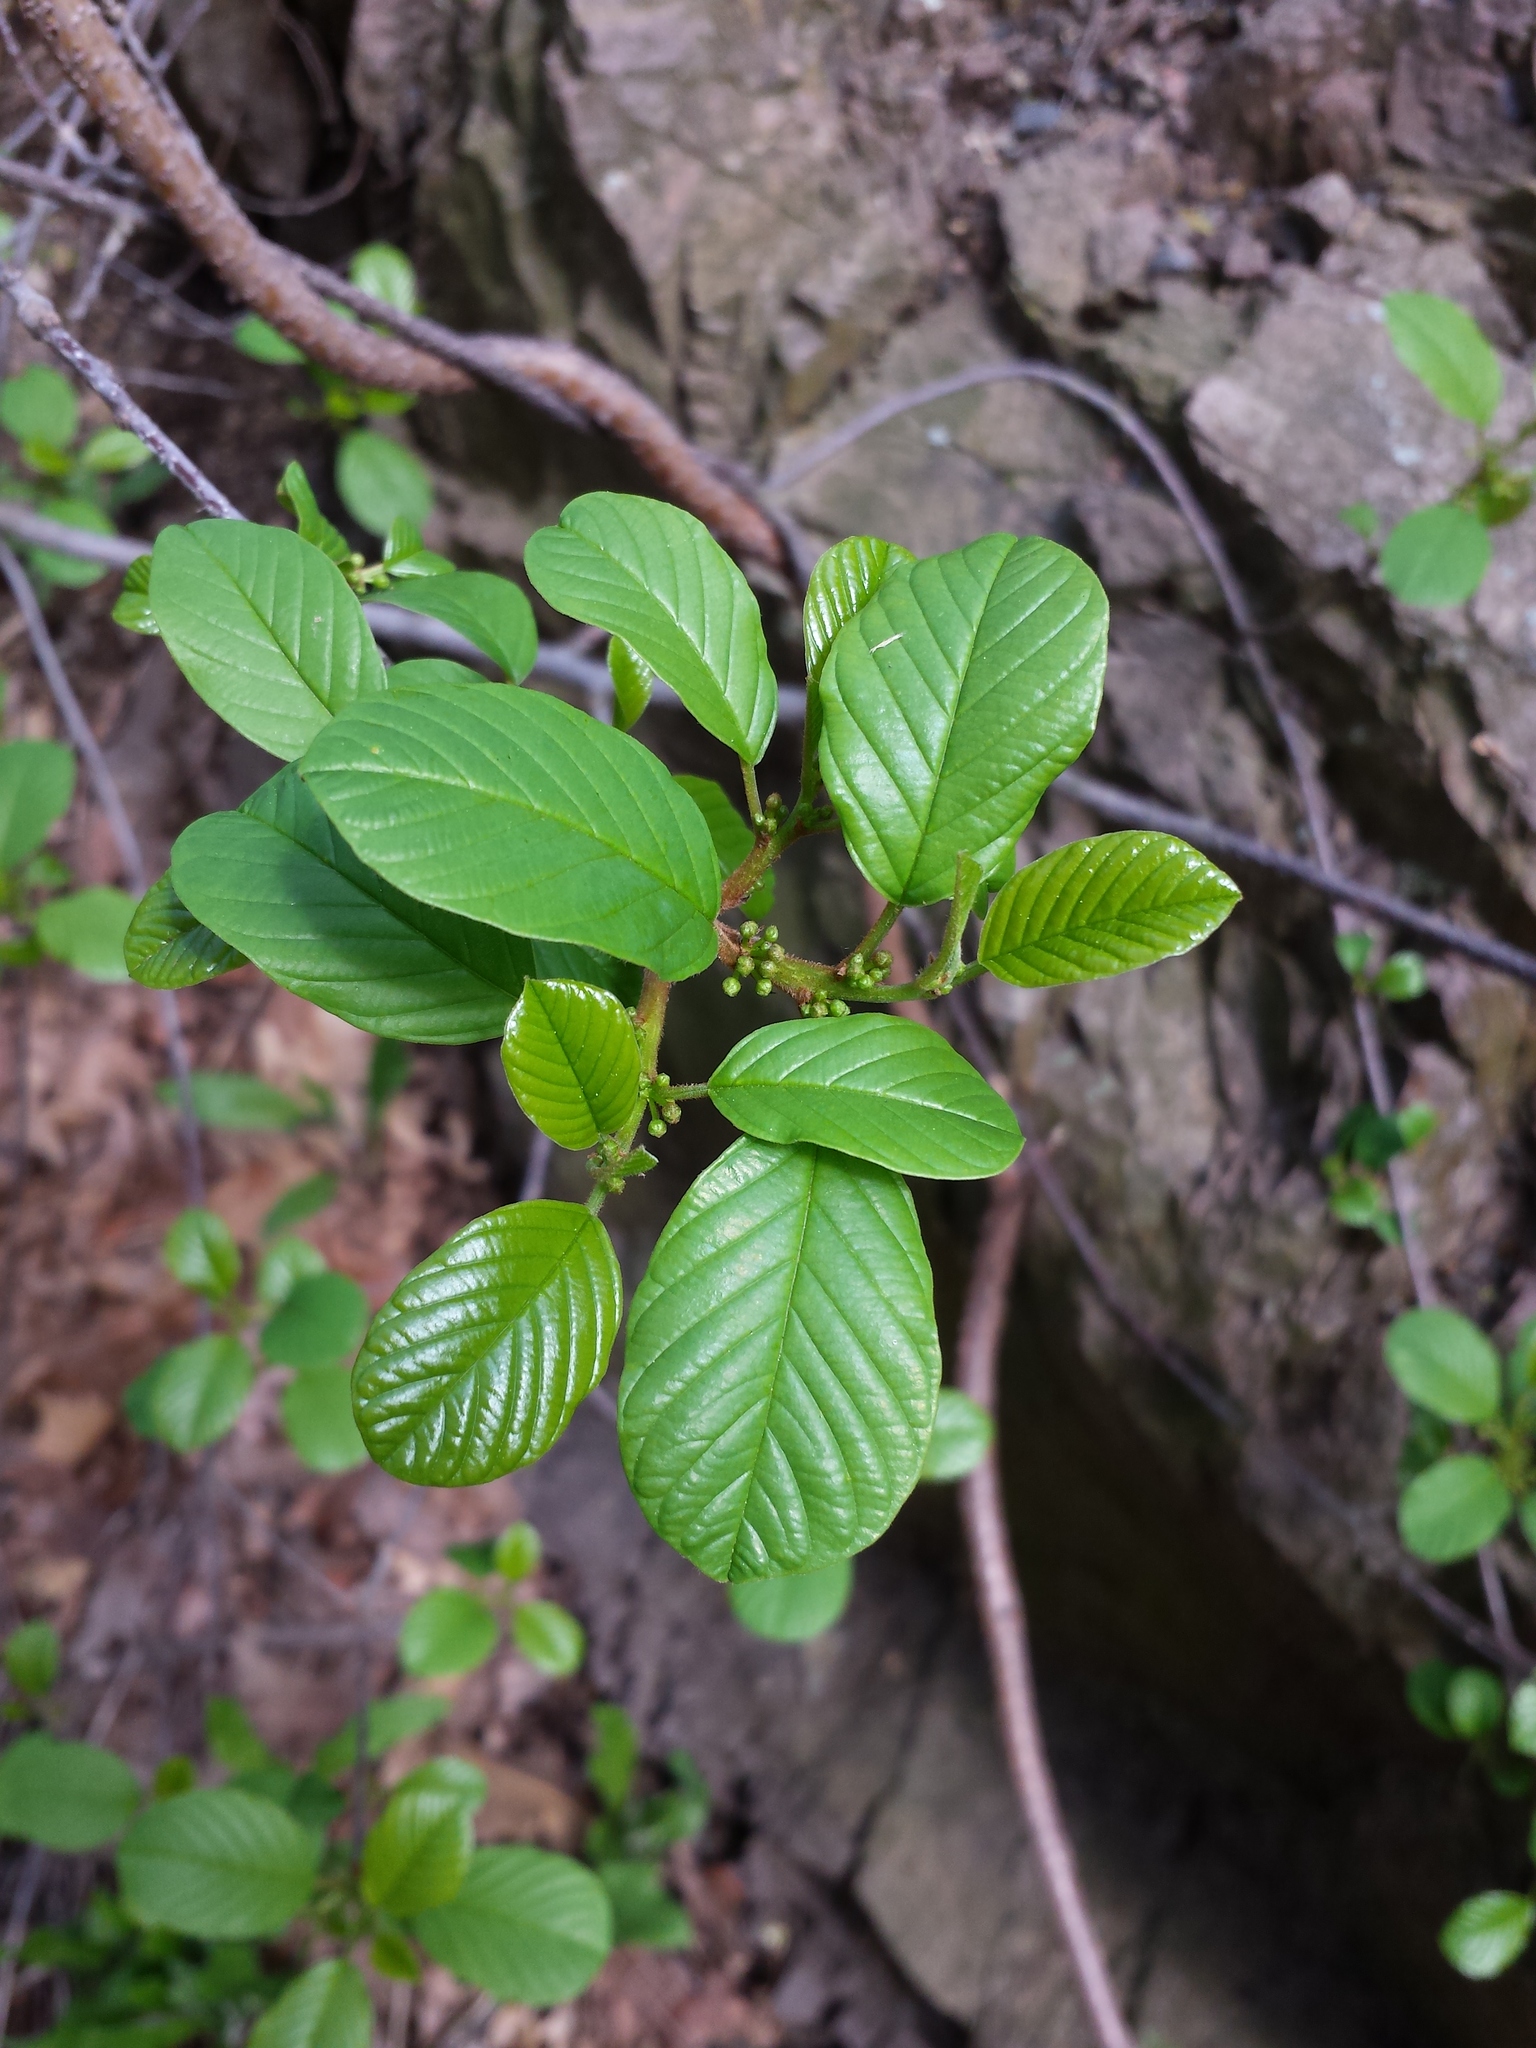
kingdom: Plantae
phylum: Tracheophyta
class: Magnoliopsida
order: Rosales
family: Rhamnaceae
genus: Frangula
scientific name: Frangula alnus
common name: Alder buckthorn
